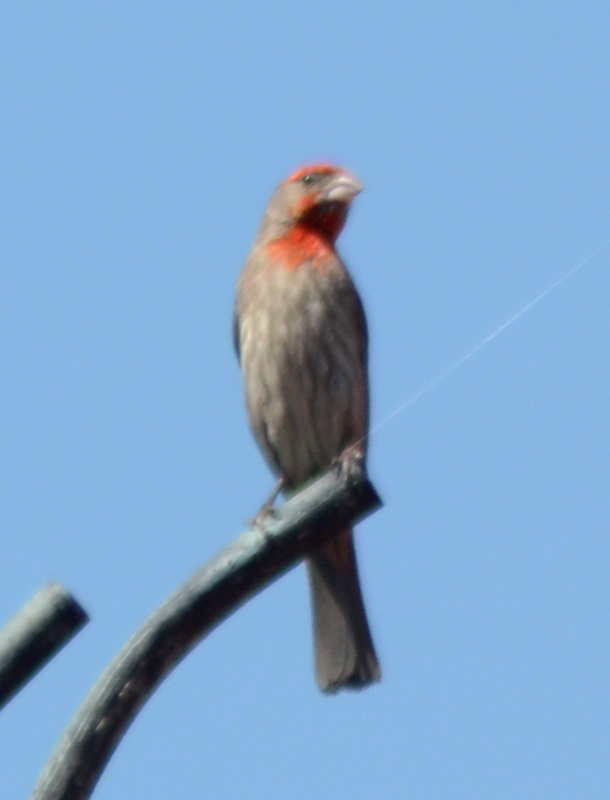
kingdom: Animalia
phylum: Chordata
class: Aves
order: Passeriformes
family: Fringillidae
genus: Haemorhous
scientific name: Haemorhous mexicanus
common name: House finch
